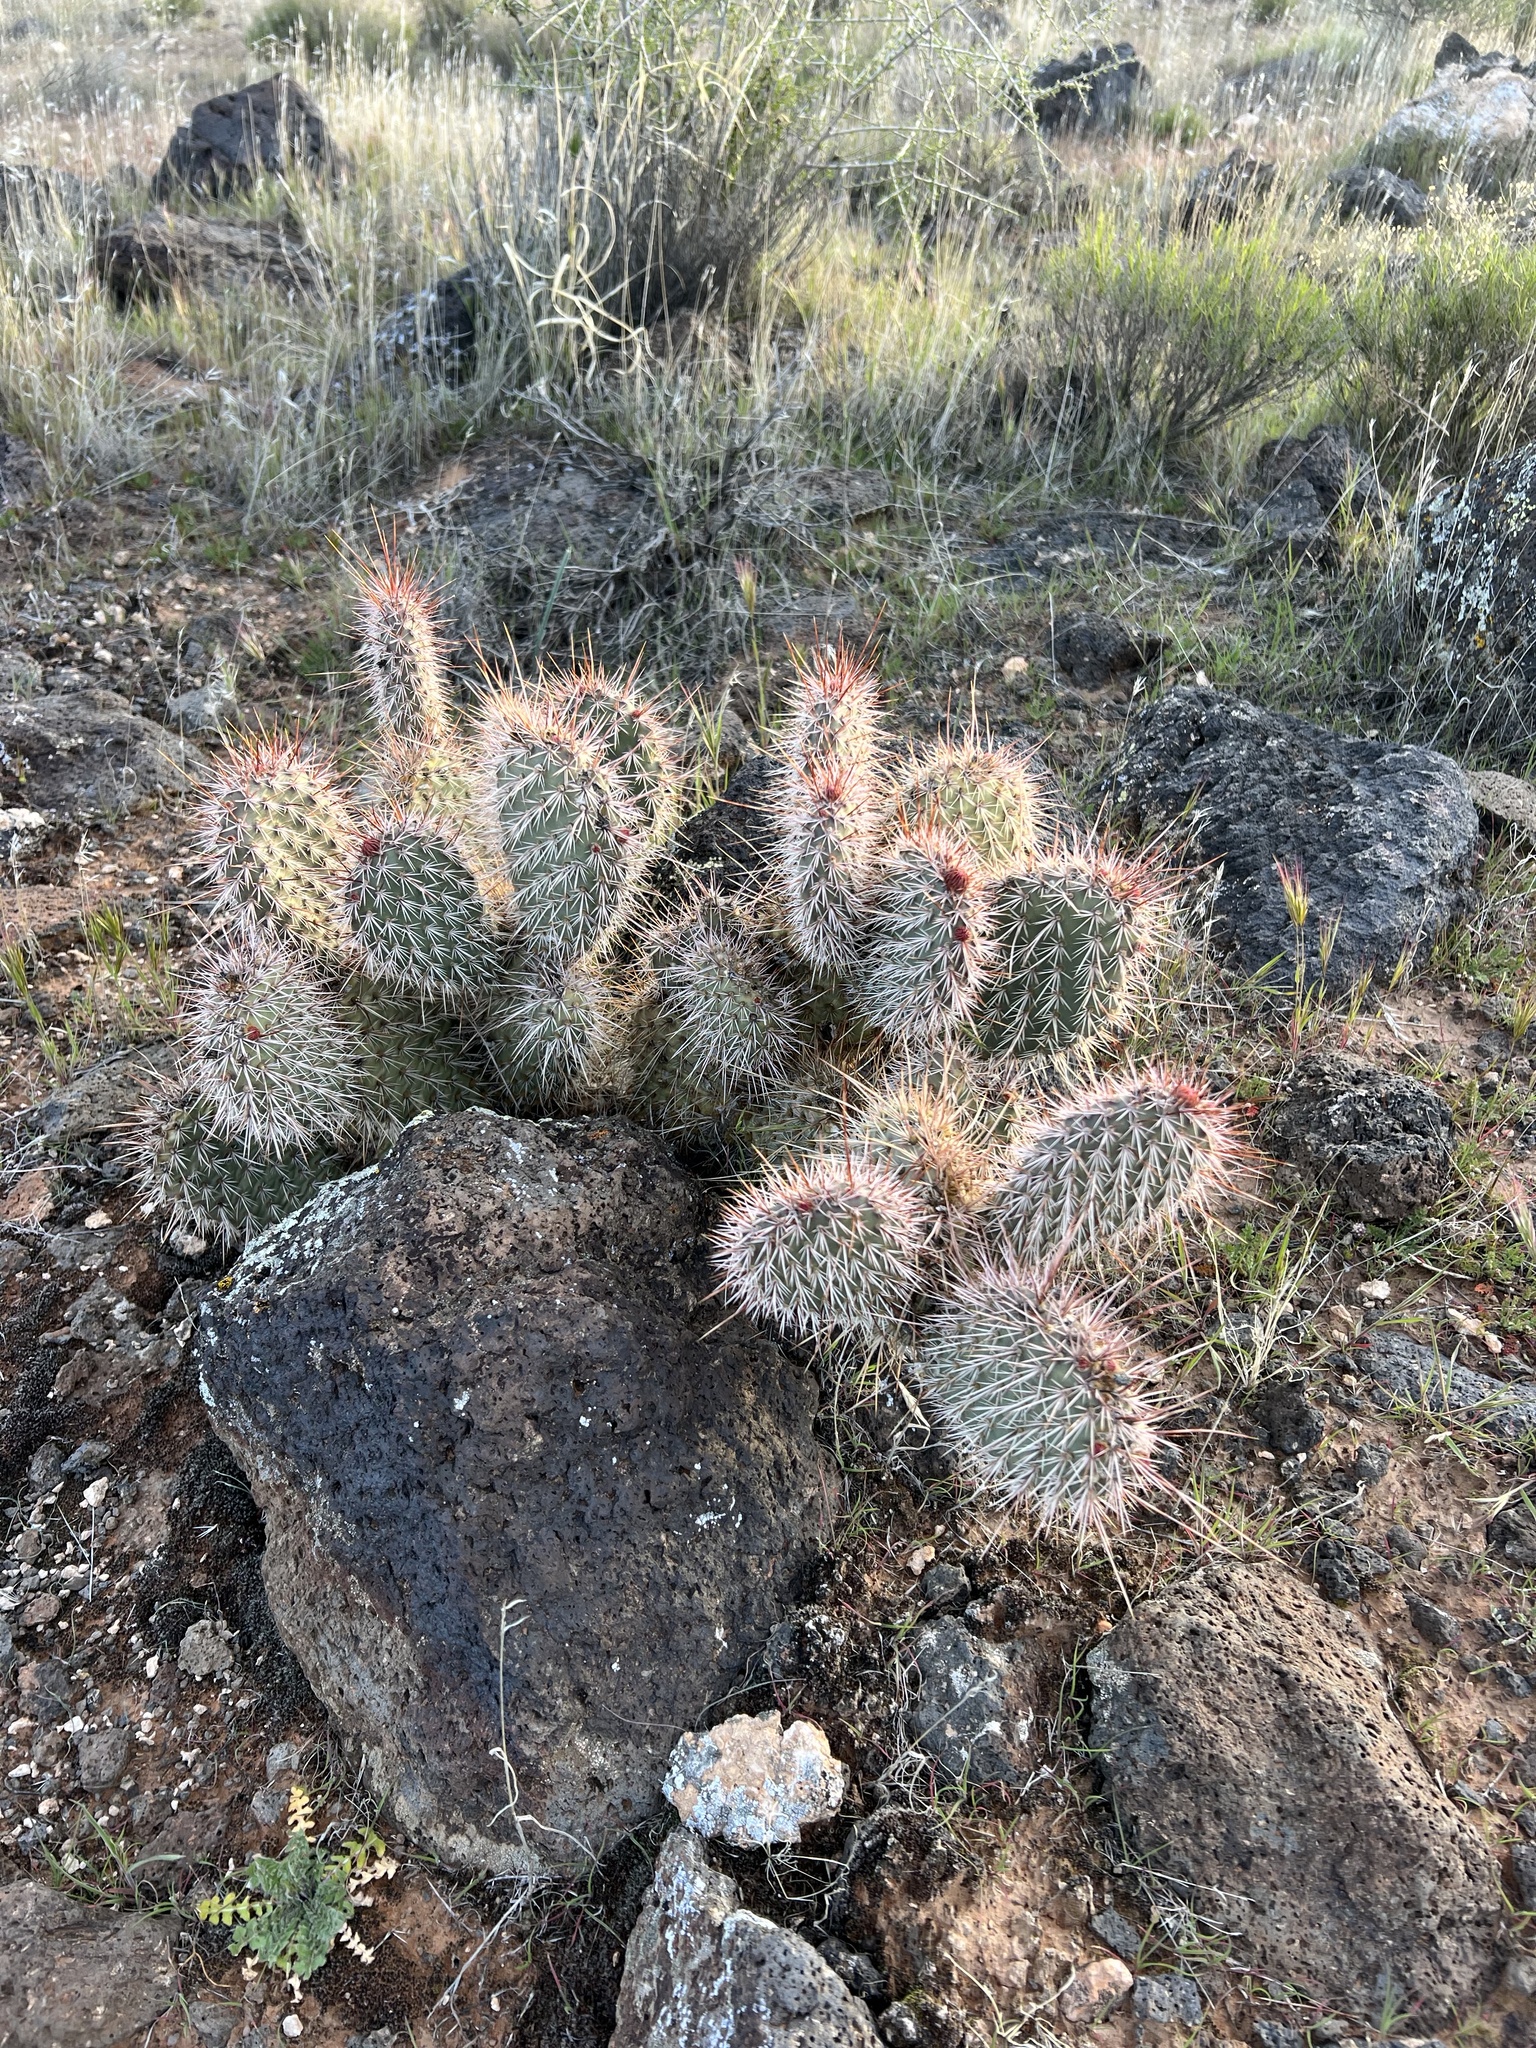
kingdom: Plantae
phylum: Tracheophyta
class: Magnoliopsida
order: Caryophyllales
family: Cactaceae
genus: Opuntia
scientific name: Opuntia polyacantha
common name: Plains prickly-pear
